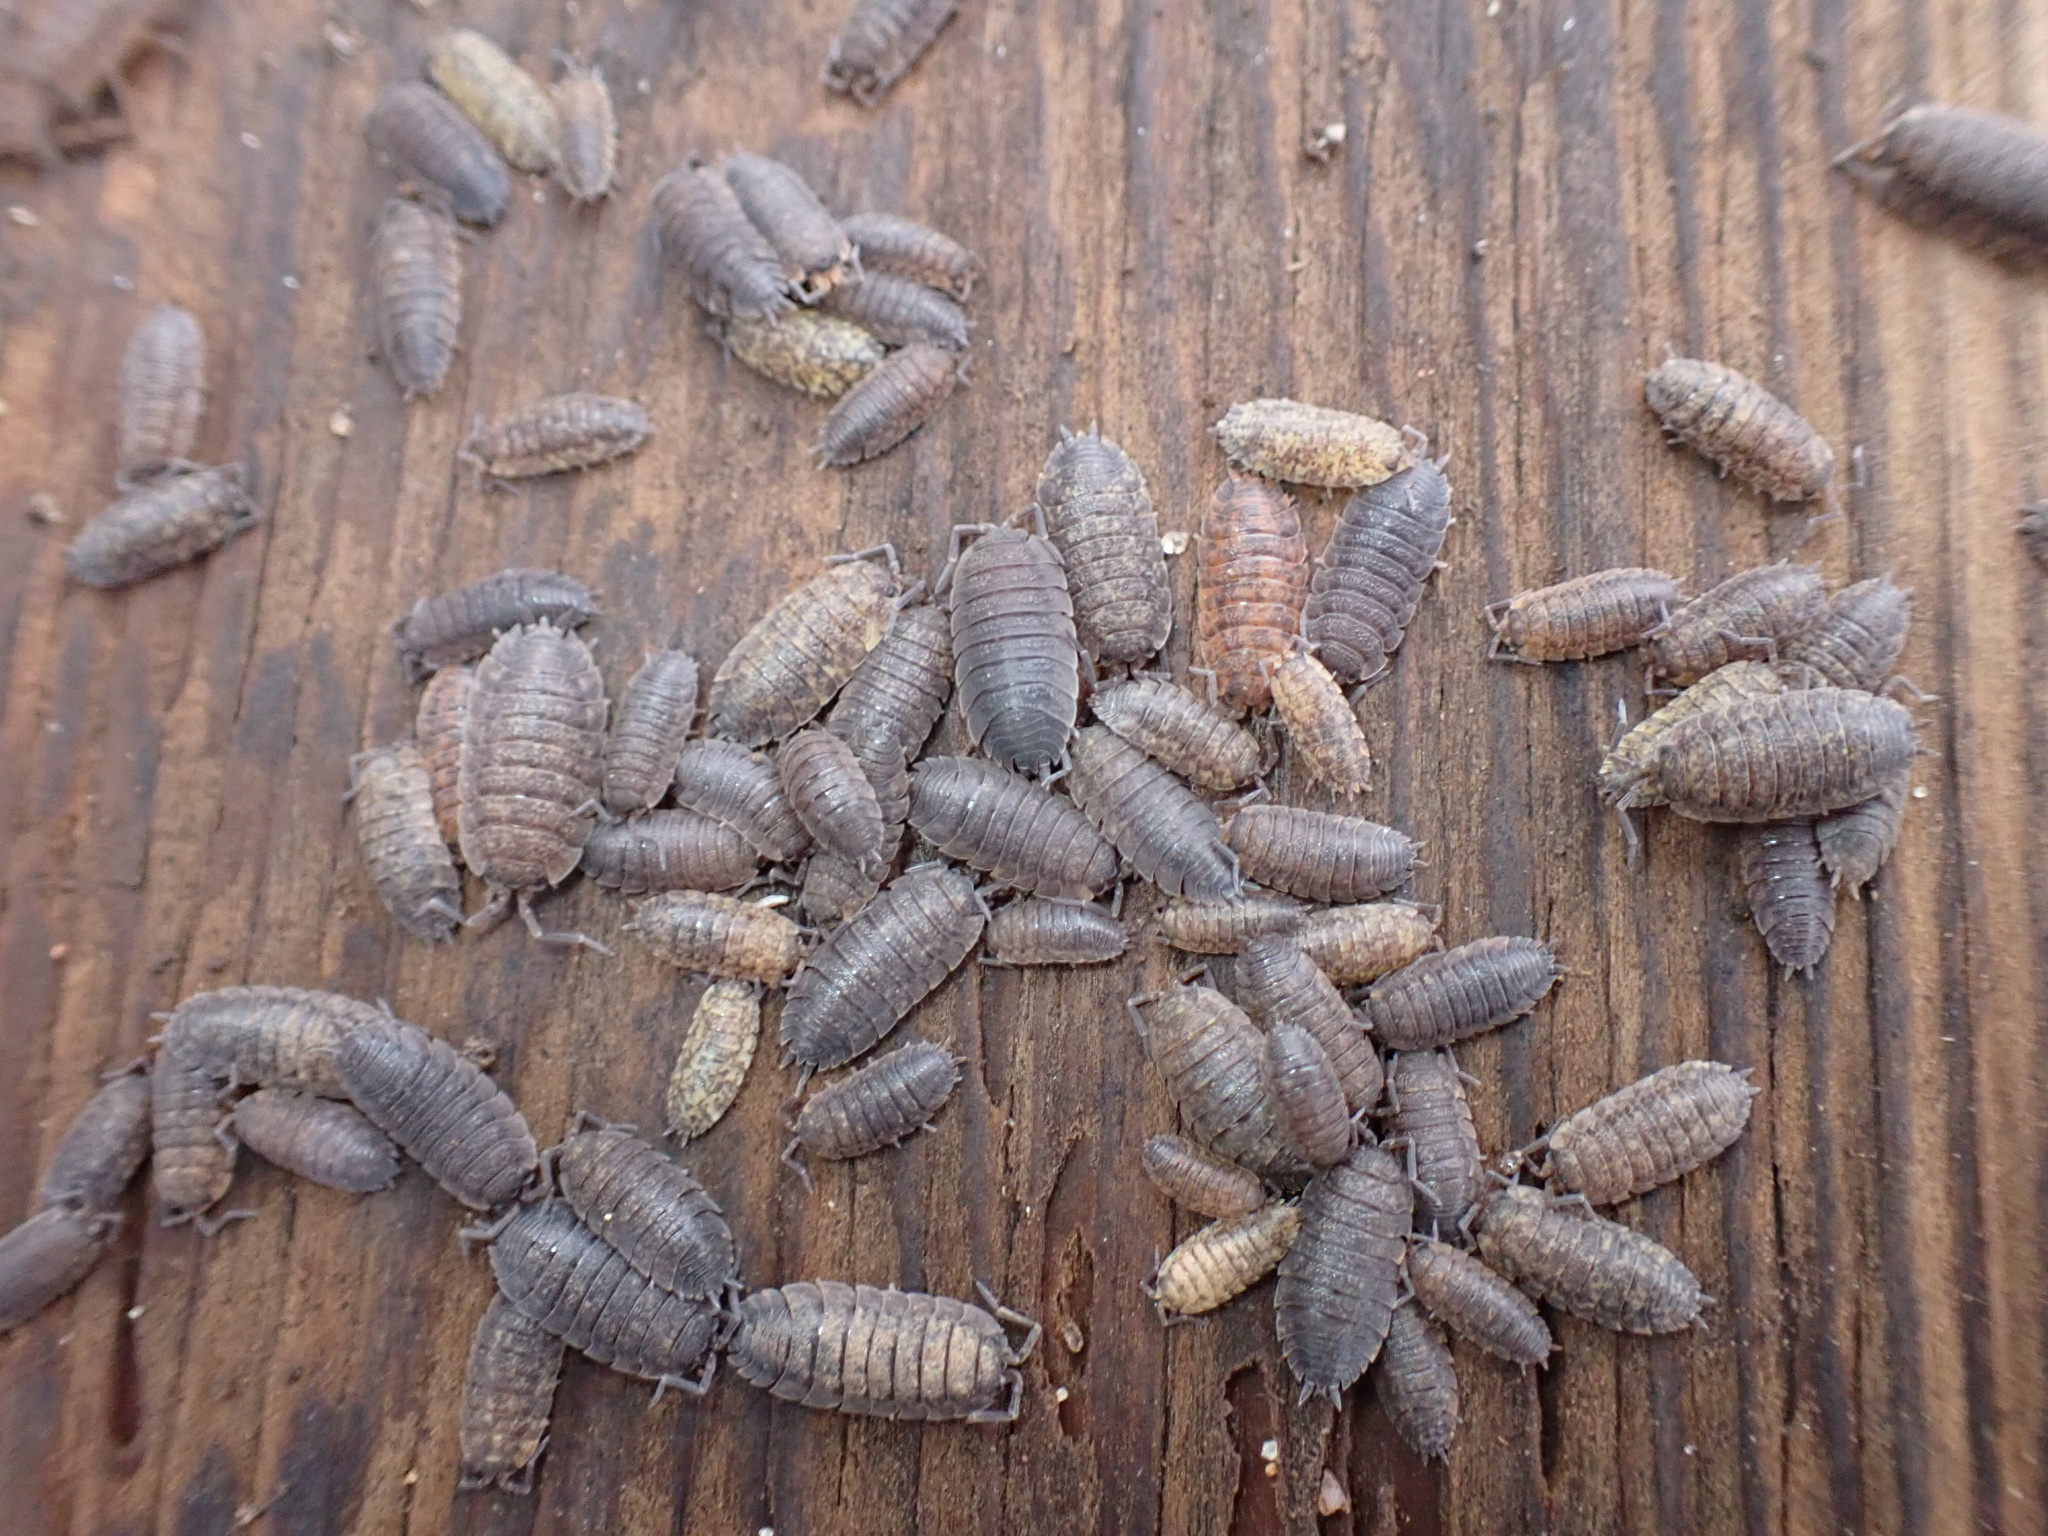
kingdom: Animalia
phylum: Arthropoda
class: Malacostraca
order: Isopoda
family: Porcellionidae
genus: Porcellio
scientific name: Porcellio scaber
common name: Common rough woodlouse
